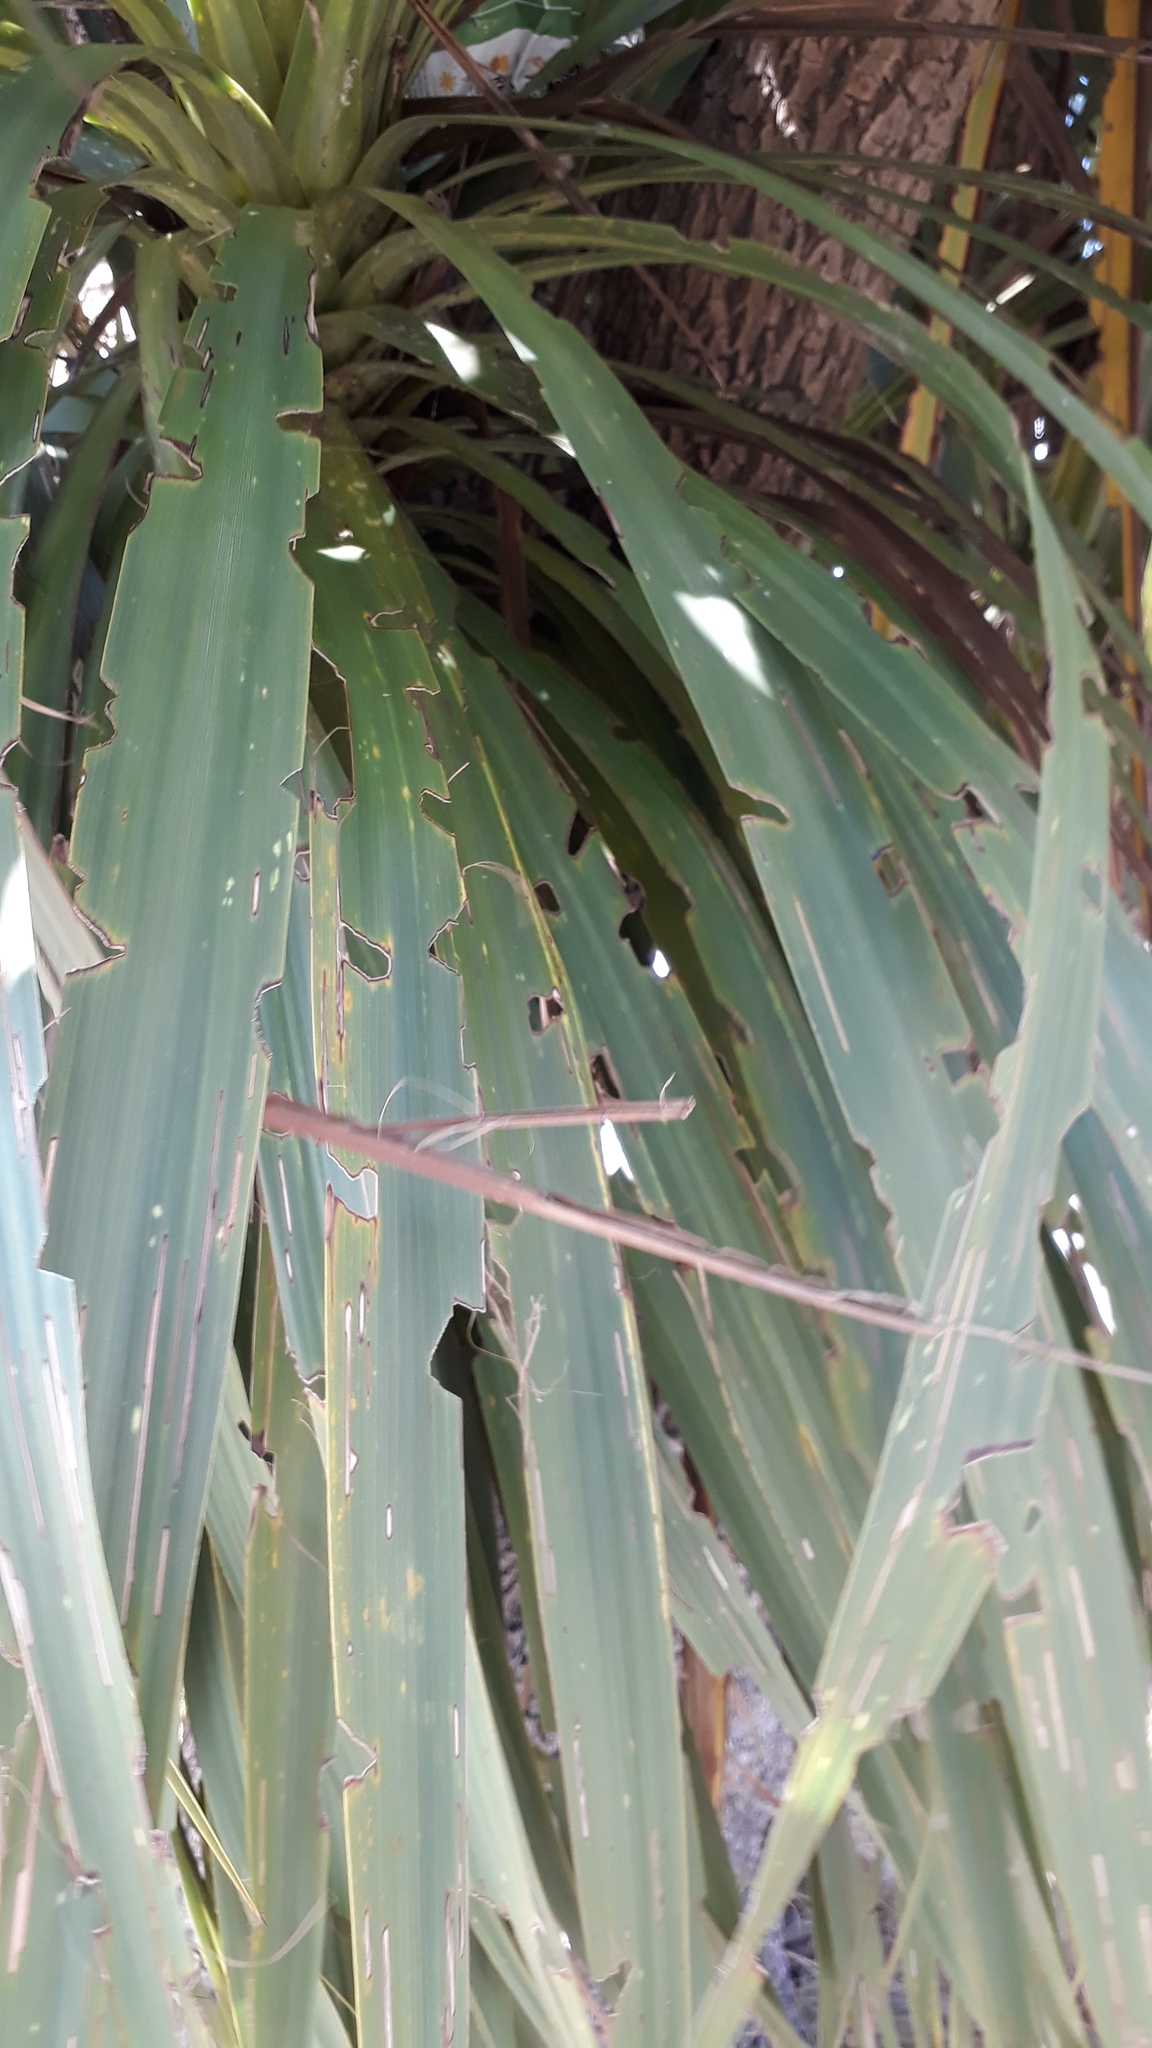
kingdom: Animalia
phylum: Arthropoda
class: Insecta
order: Lepidoptera
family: Geometridae
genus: Epiphryne
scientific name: Epiphryne verriculata
